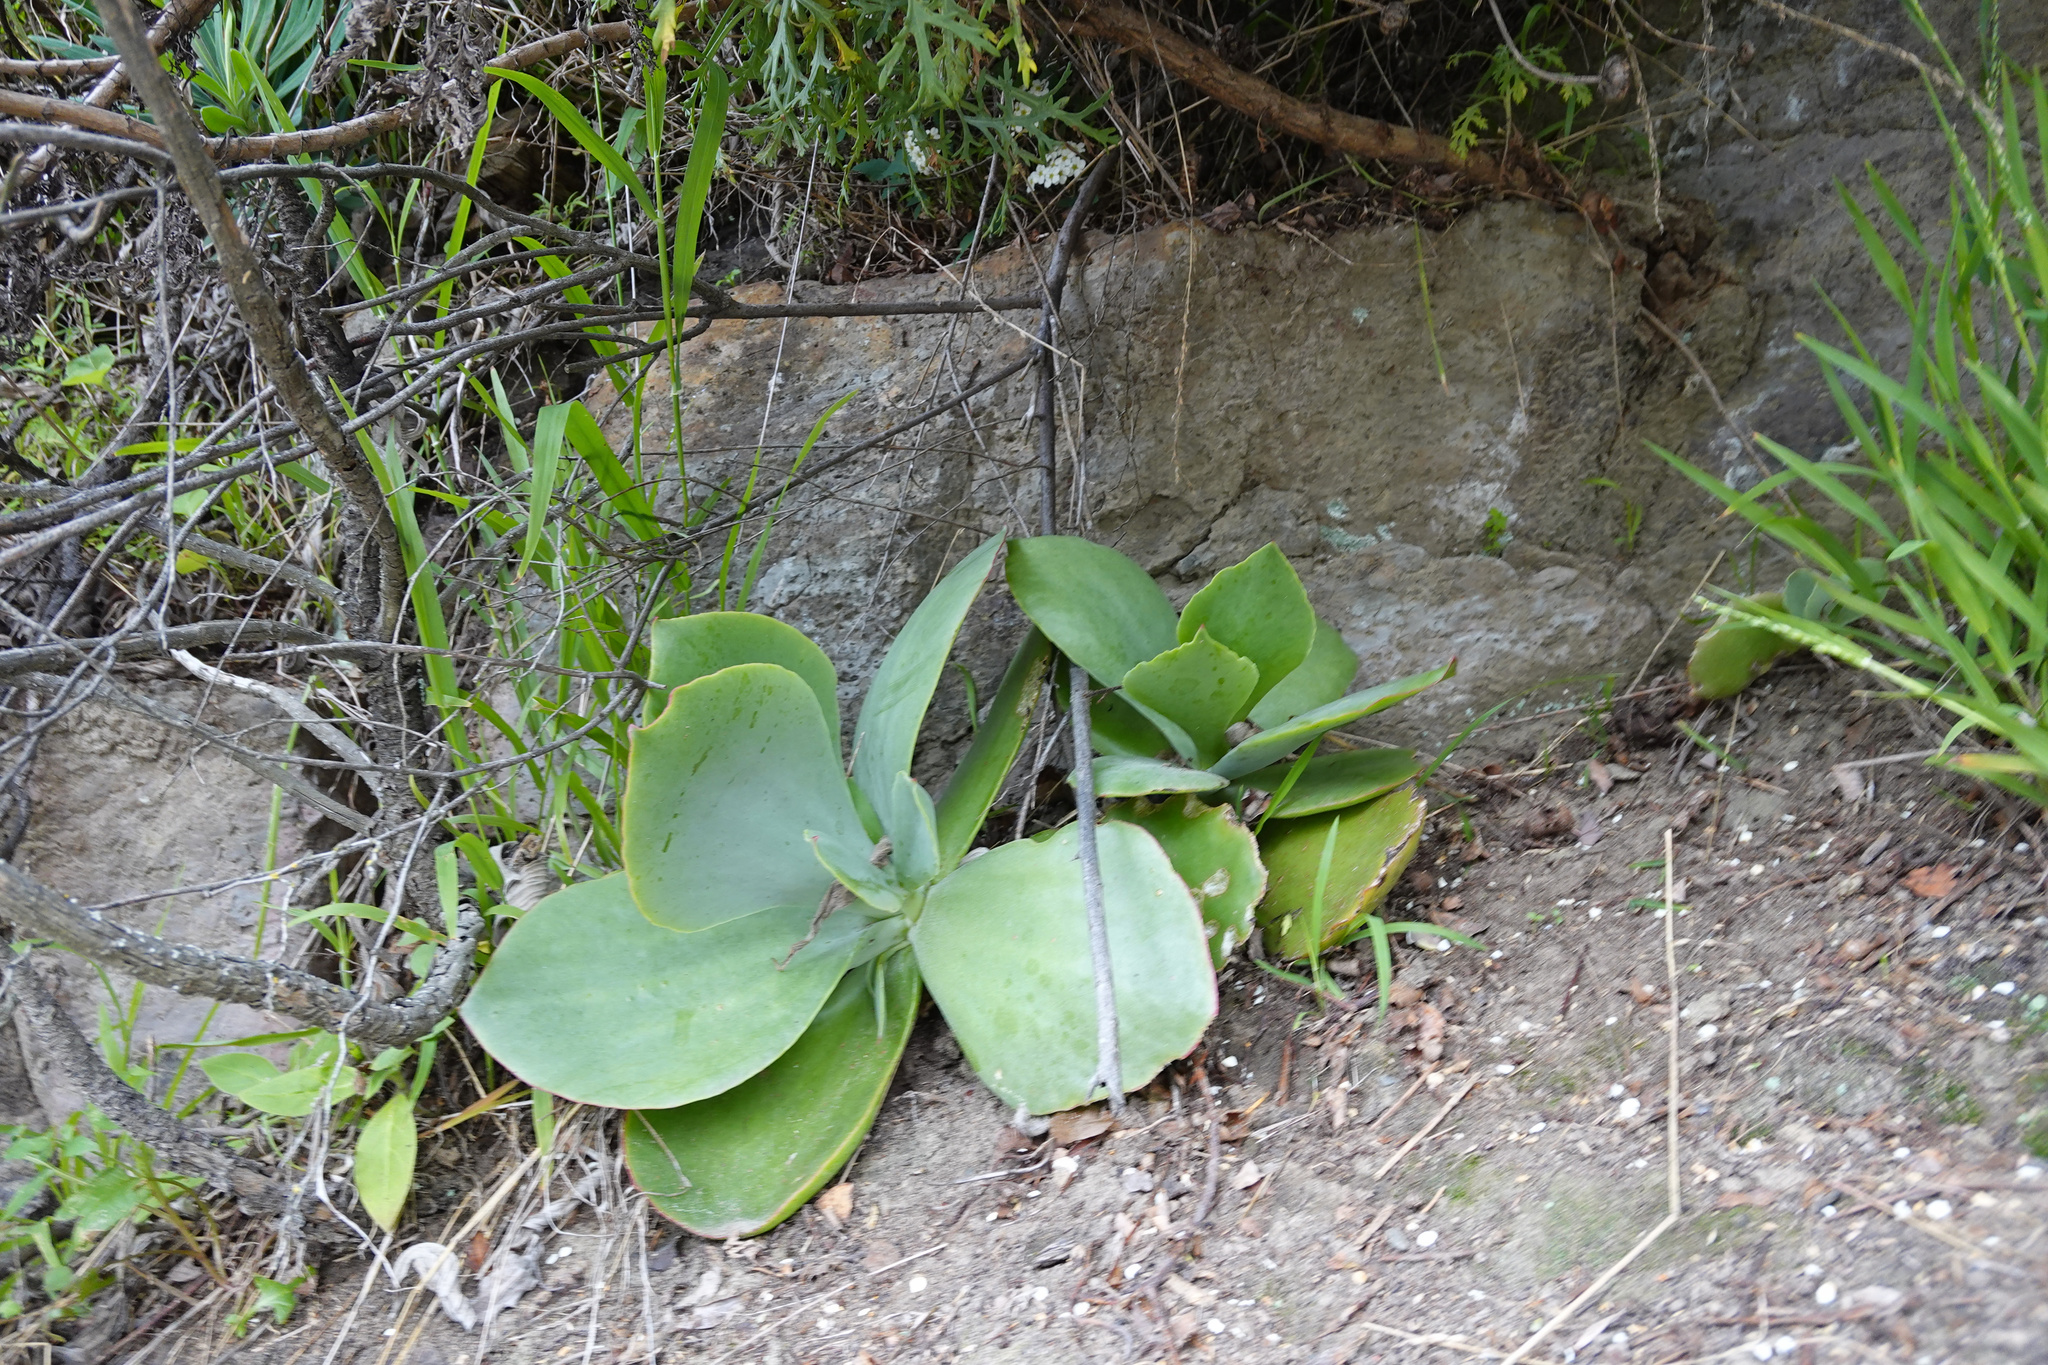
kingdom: Plantae
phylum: Tracheophyta
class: Magnoliopsida
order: Saxifragales
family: Crassulaceae
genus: Cotyledon
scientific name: Cotyledon orbiculata
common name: Pig's ear
